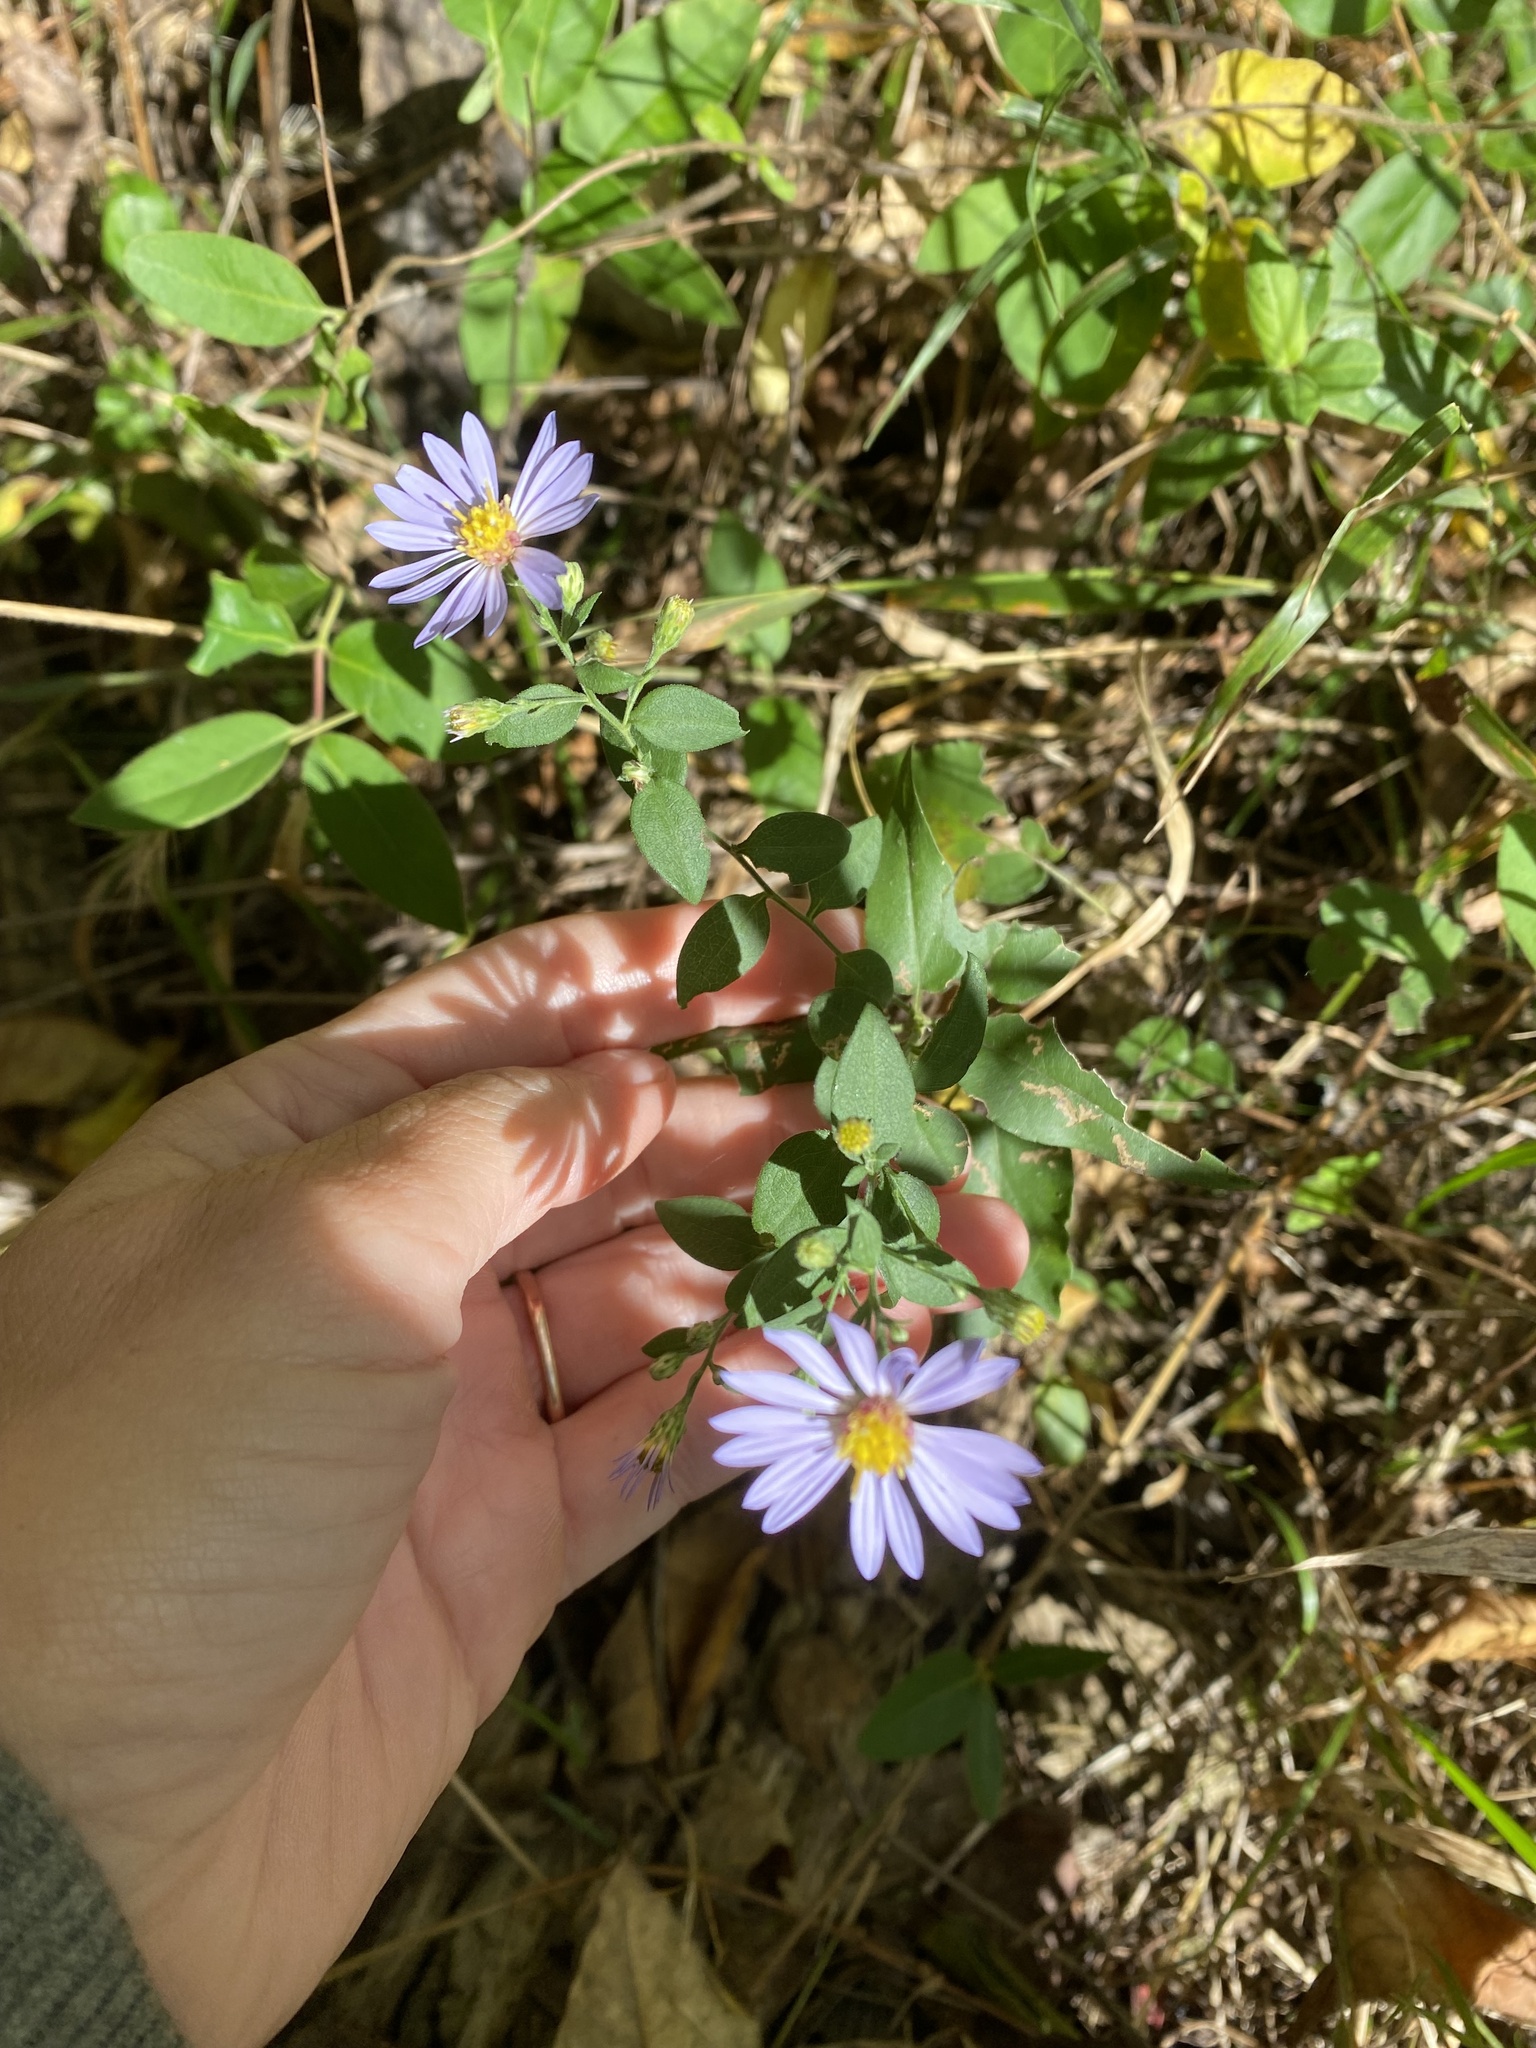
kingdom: Plantae
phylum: Tracheophyta
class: Magnoliopsida
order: Asterales
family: Asteraceae
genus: Symphyotrichum
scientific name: Symphyotrichum shortii
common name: Short's aster
